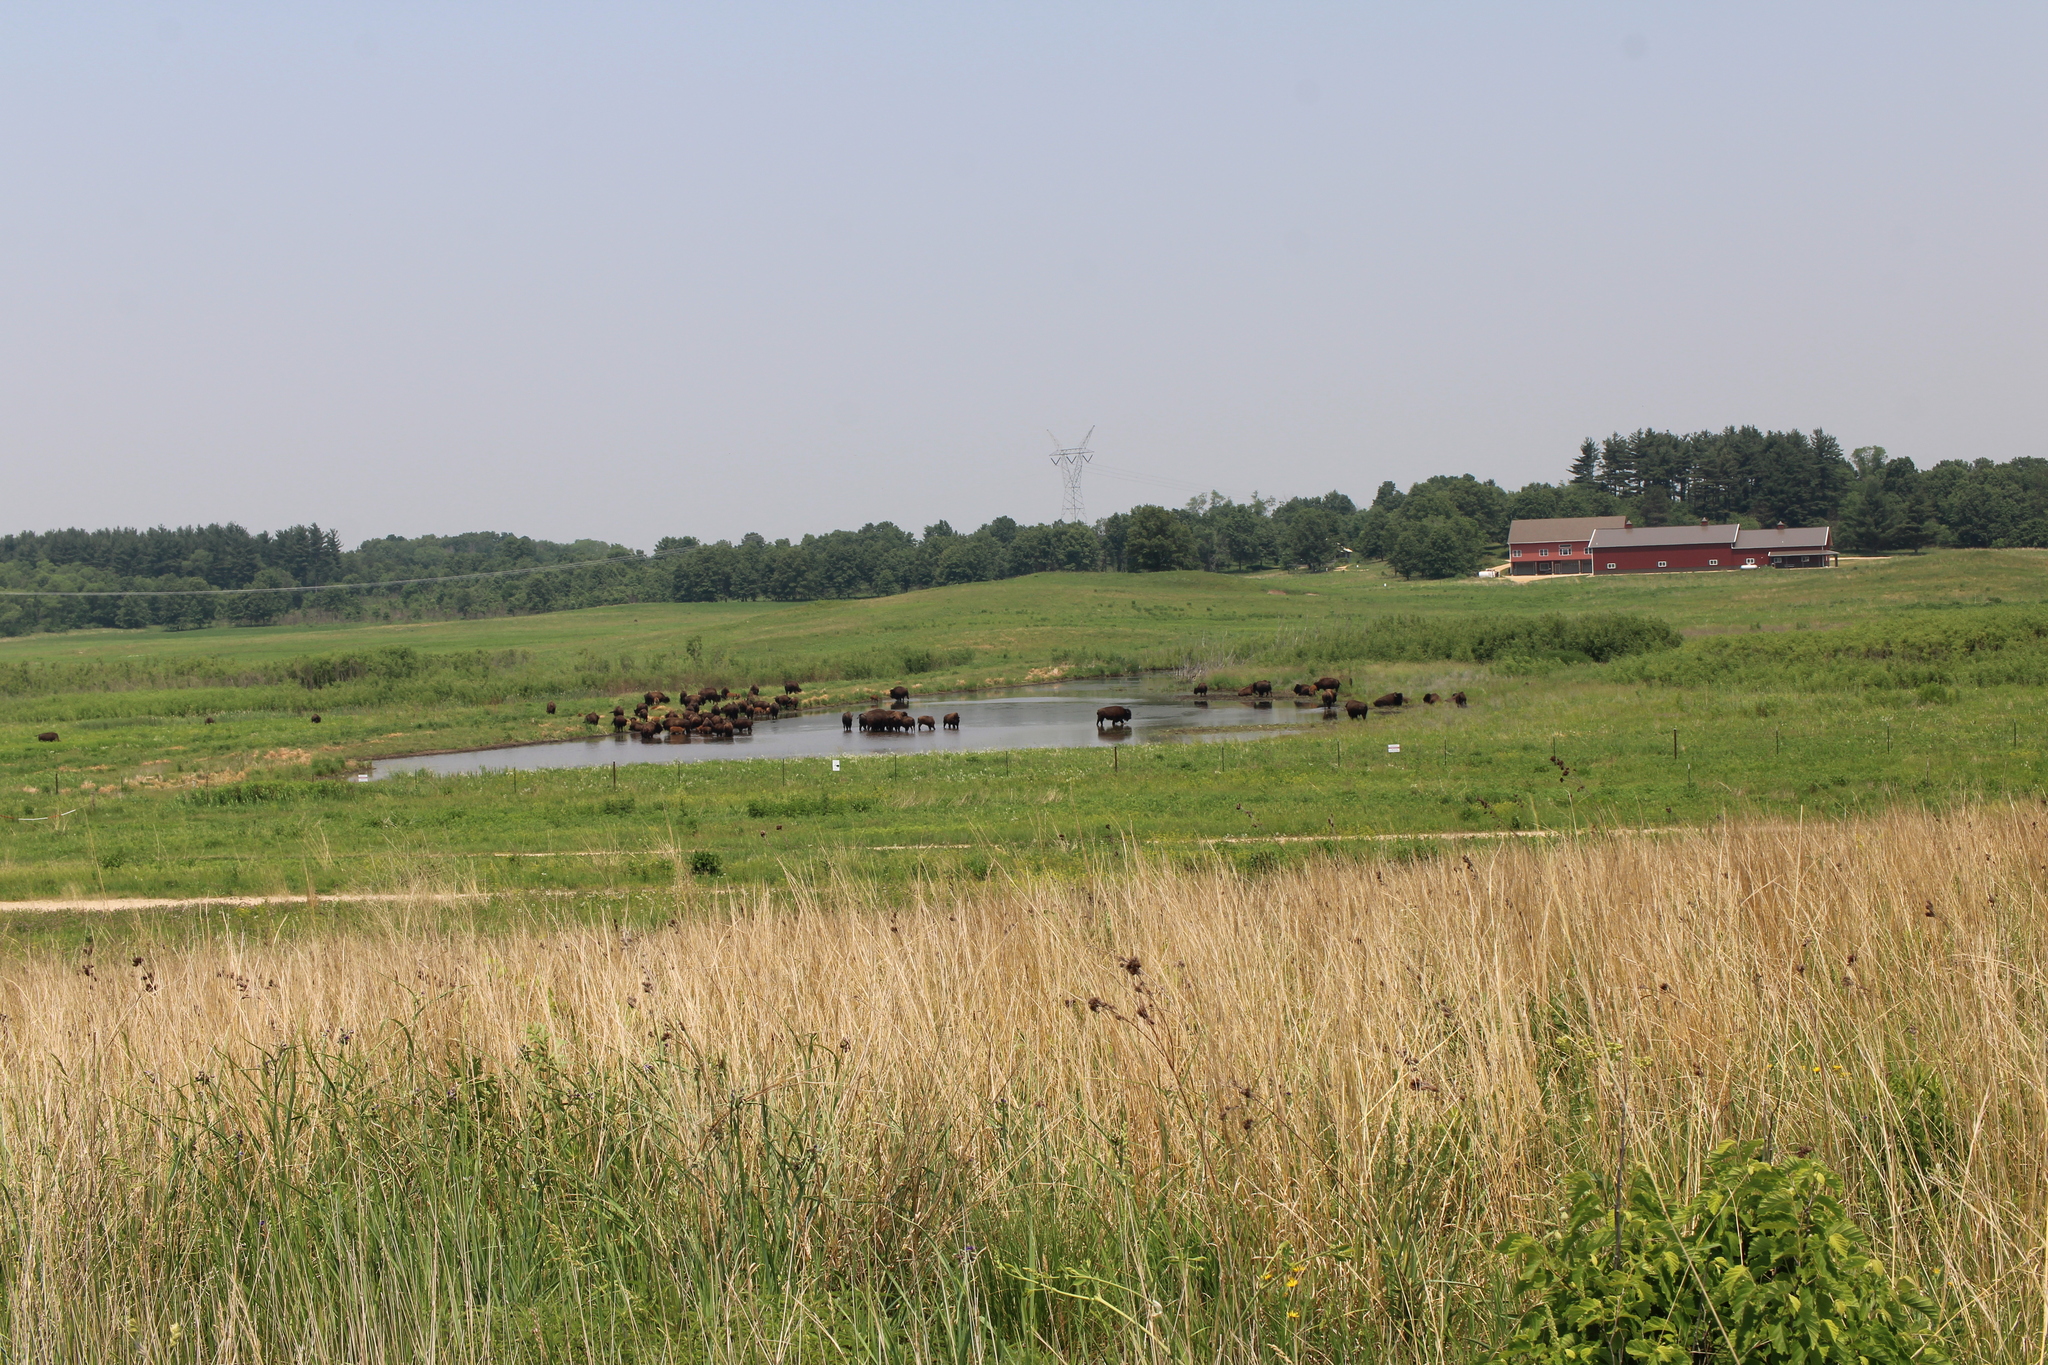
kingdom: Animalia
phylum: Chordata
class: Mammalia
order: Artiodactyla
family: Bovidae
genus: Bison
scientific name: Bison bison
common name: American bison
